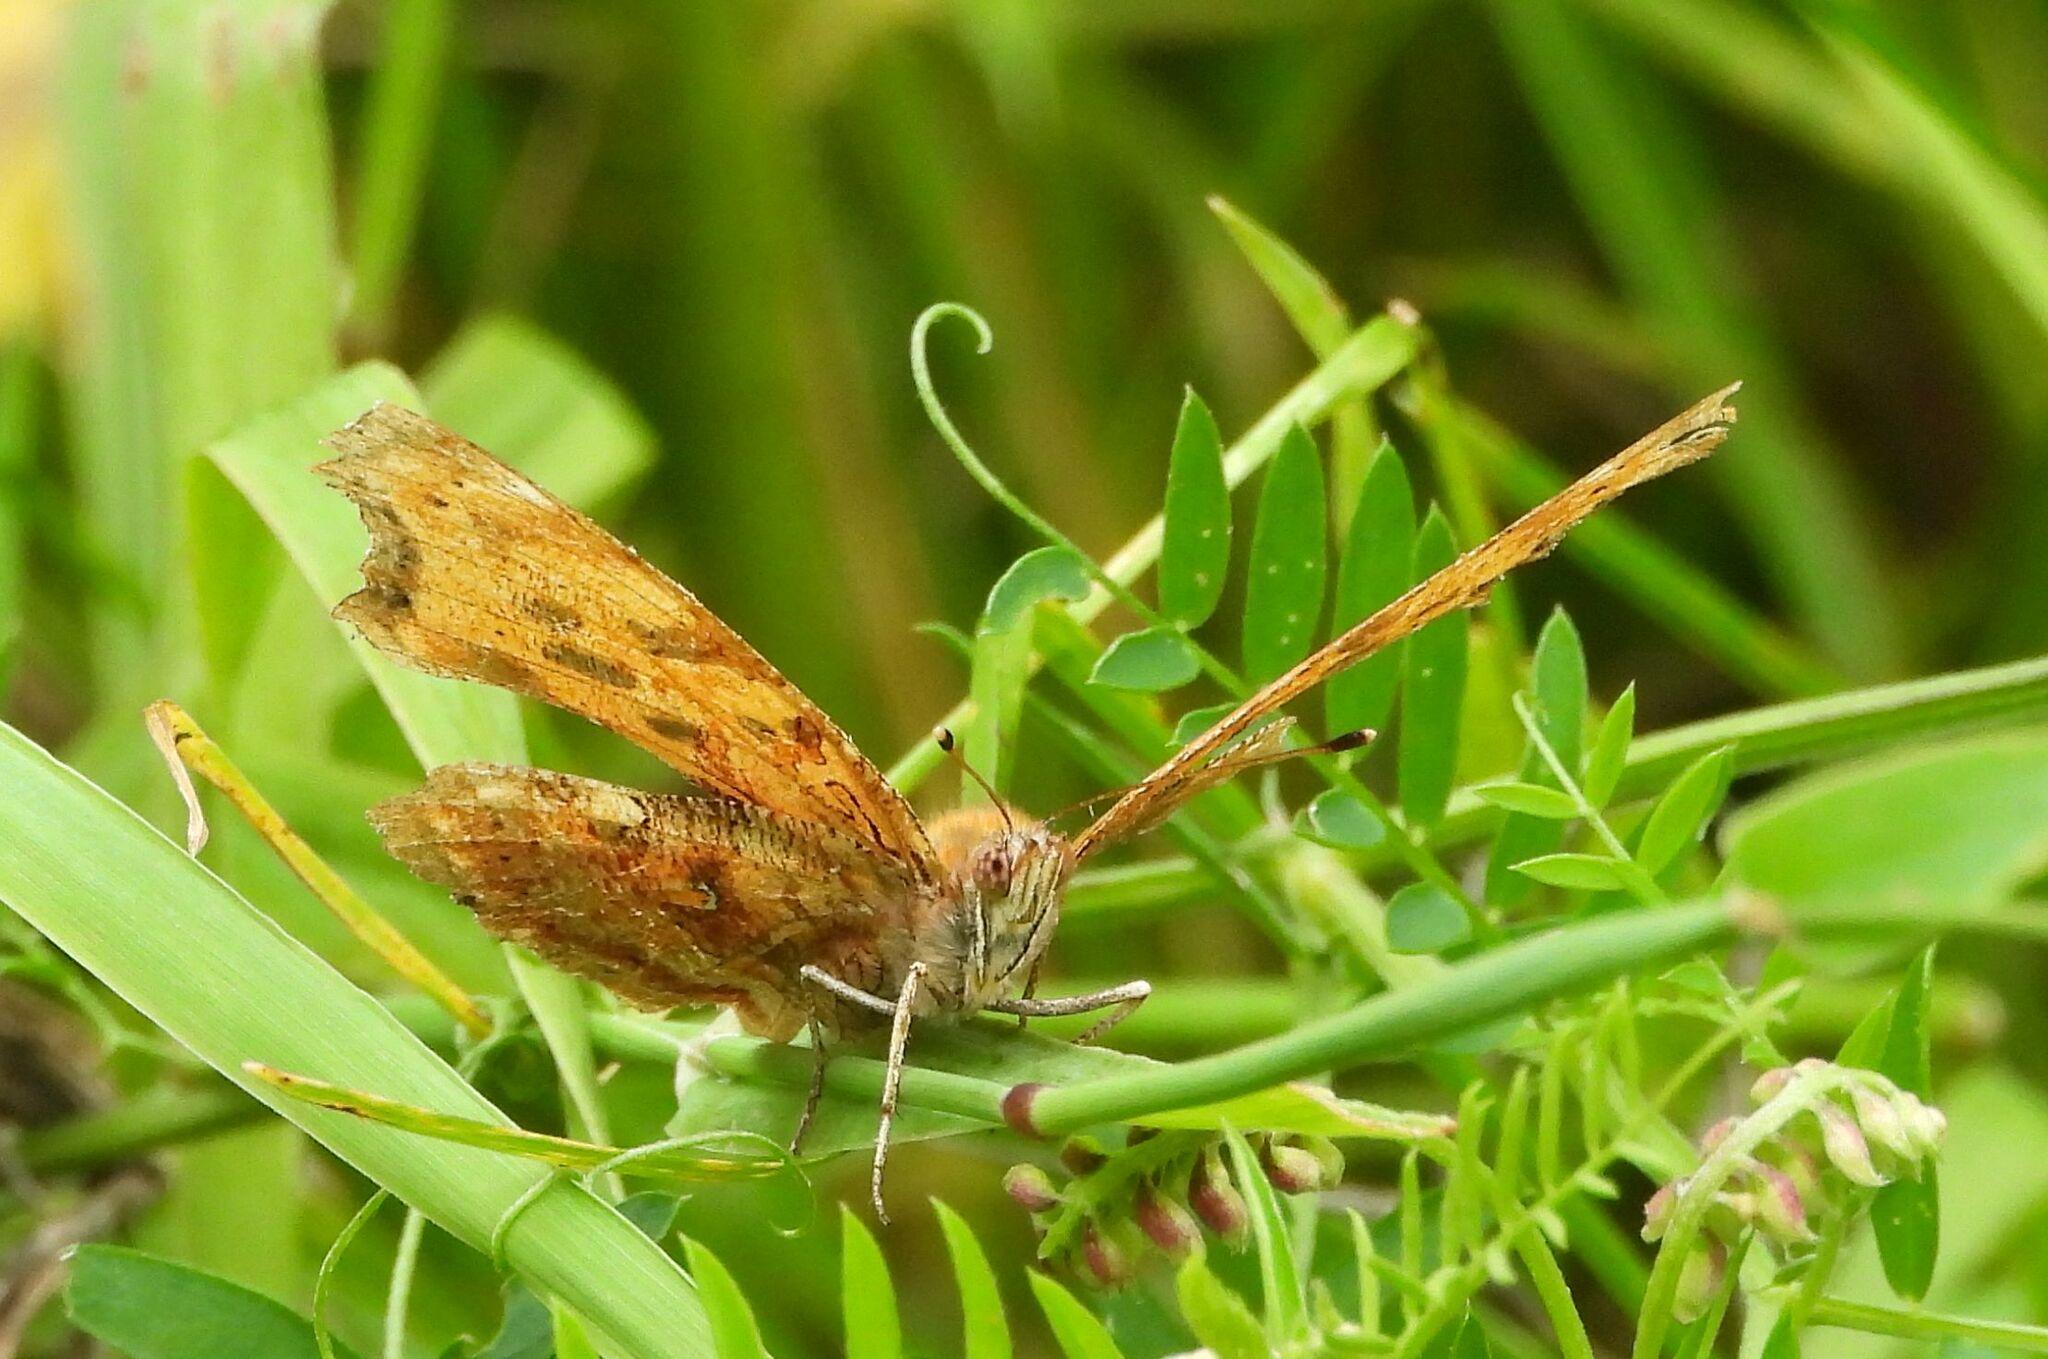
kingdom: Animalia
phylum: Arthropoda
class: Insecta
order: Lepidoptera
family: Nymphalidae
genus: Polygonia
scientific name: Polygonia comma
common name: Eastern comma
